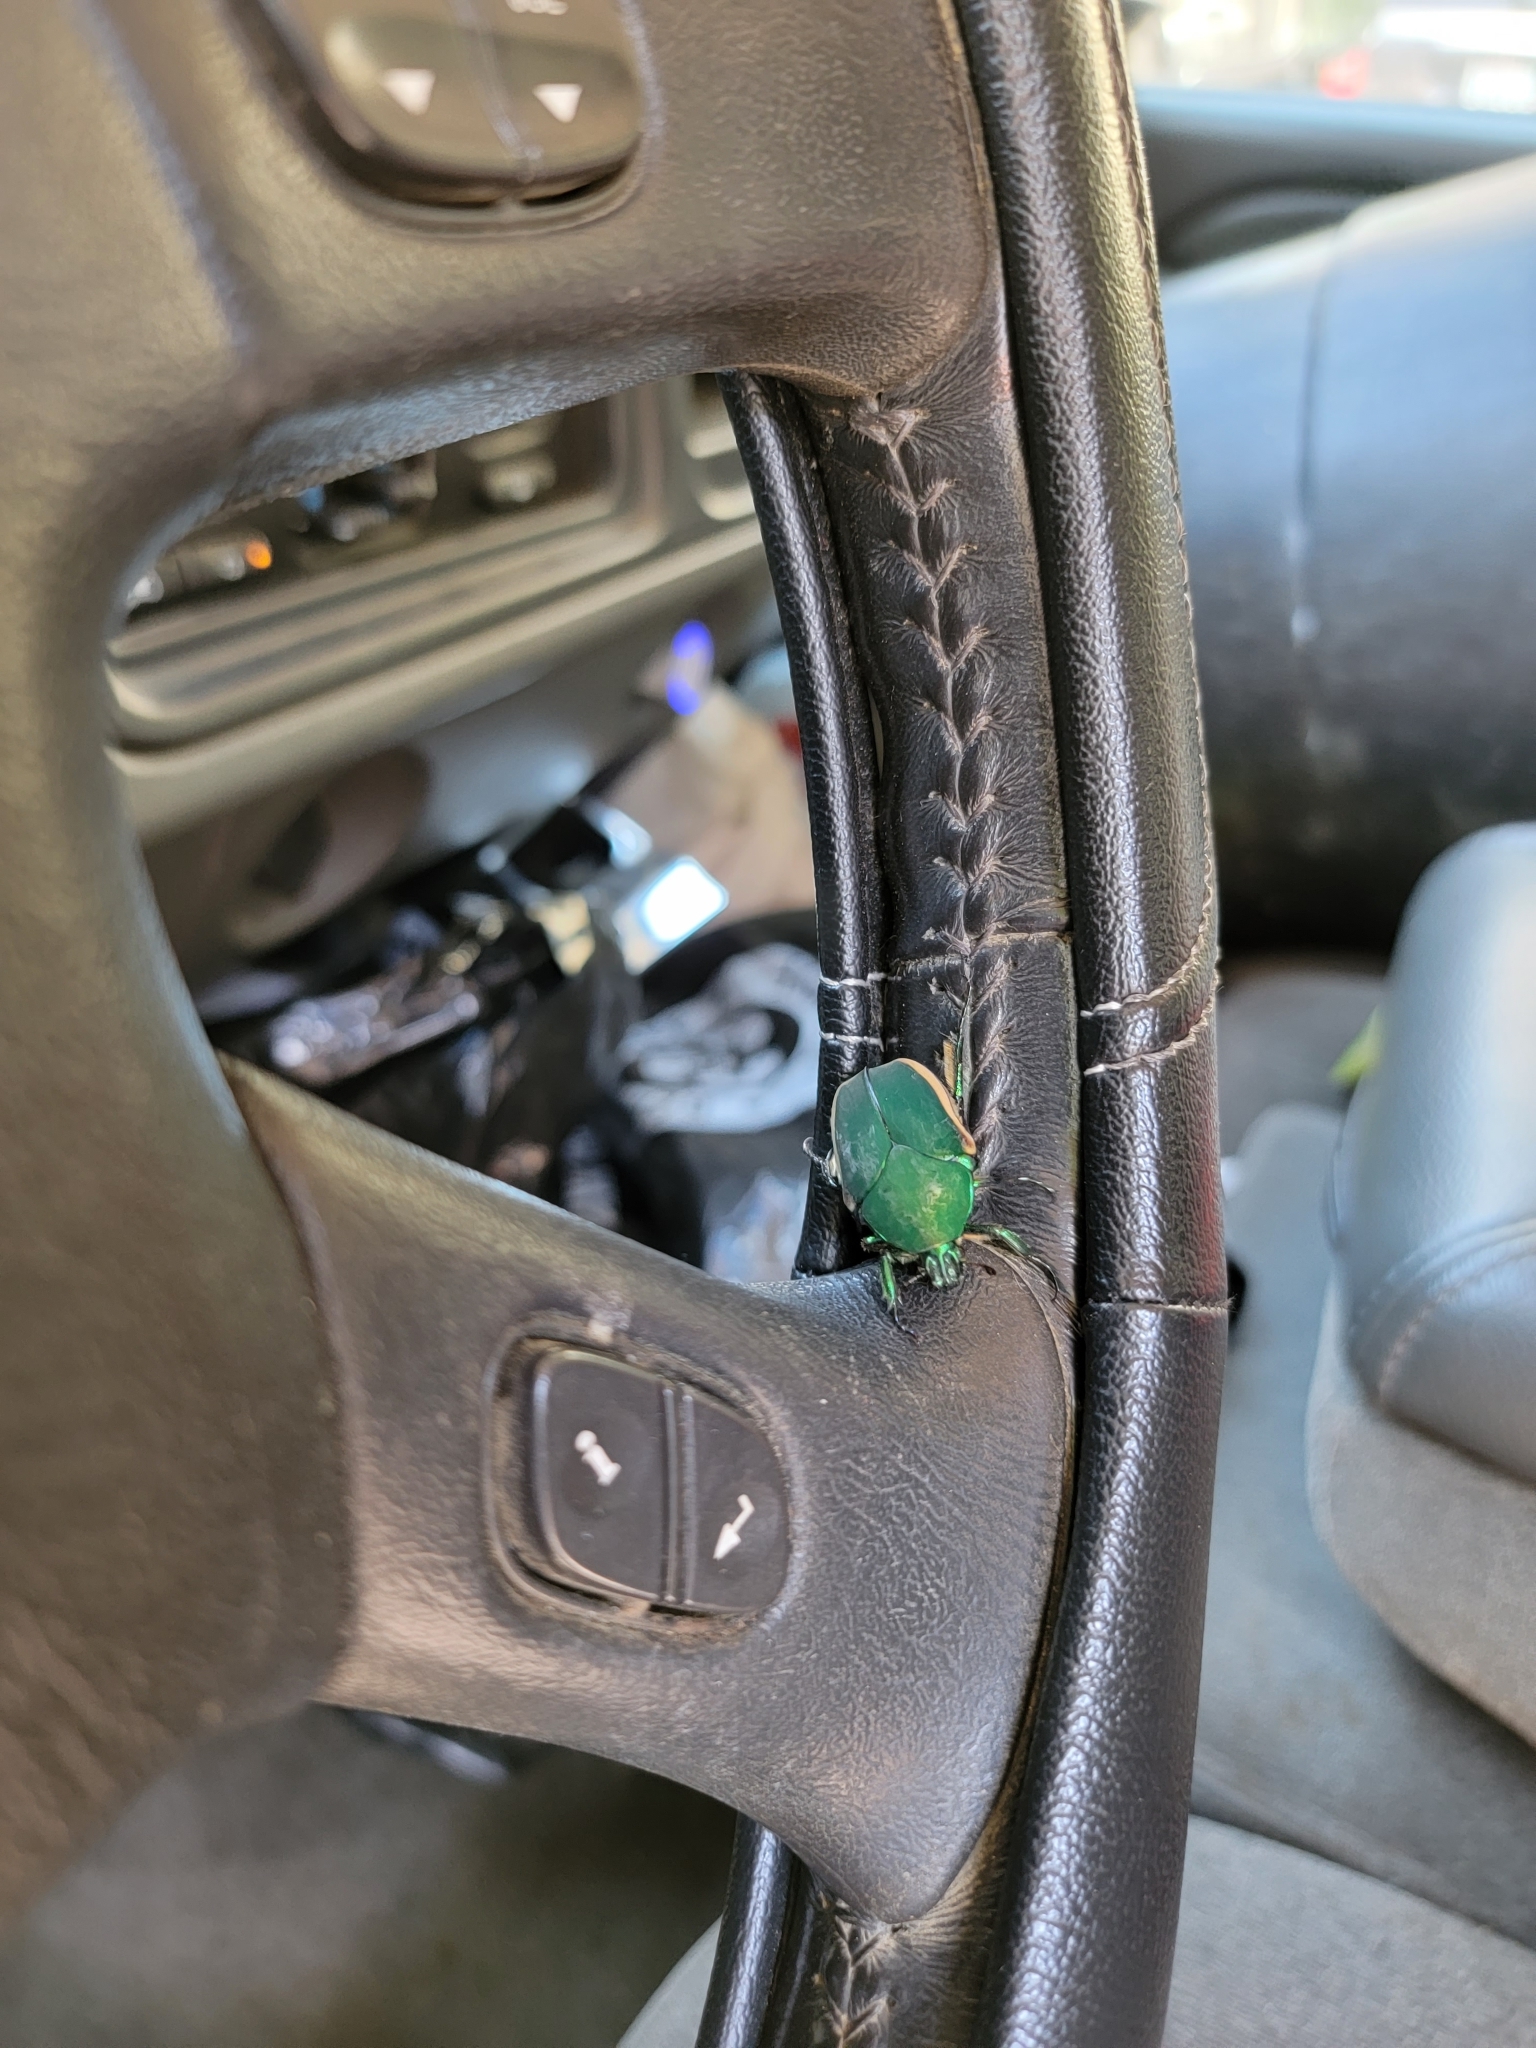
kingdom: Animalia
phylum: Arthropoda
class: Insecta
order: Coleoptera
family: Scarabaeidae
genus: Cotinis
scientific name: Cotinis mutabilis
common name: Figeater beetle
